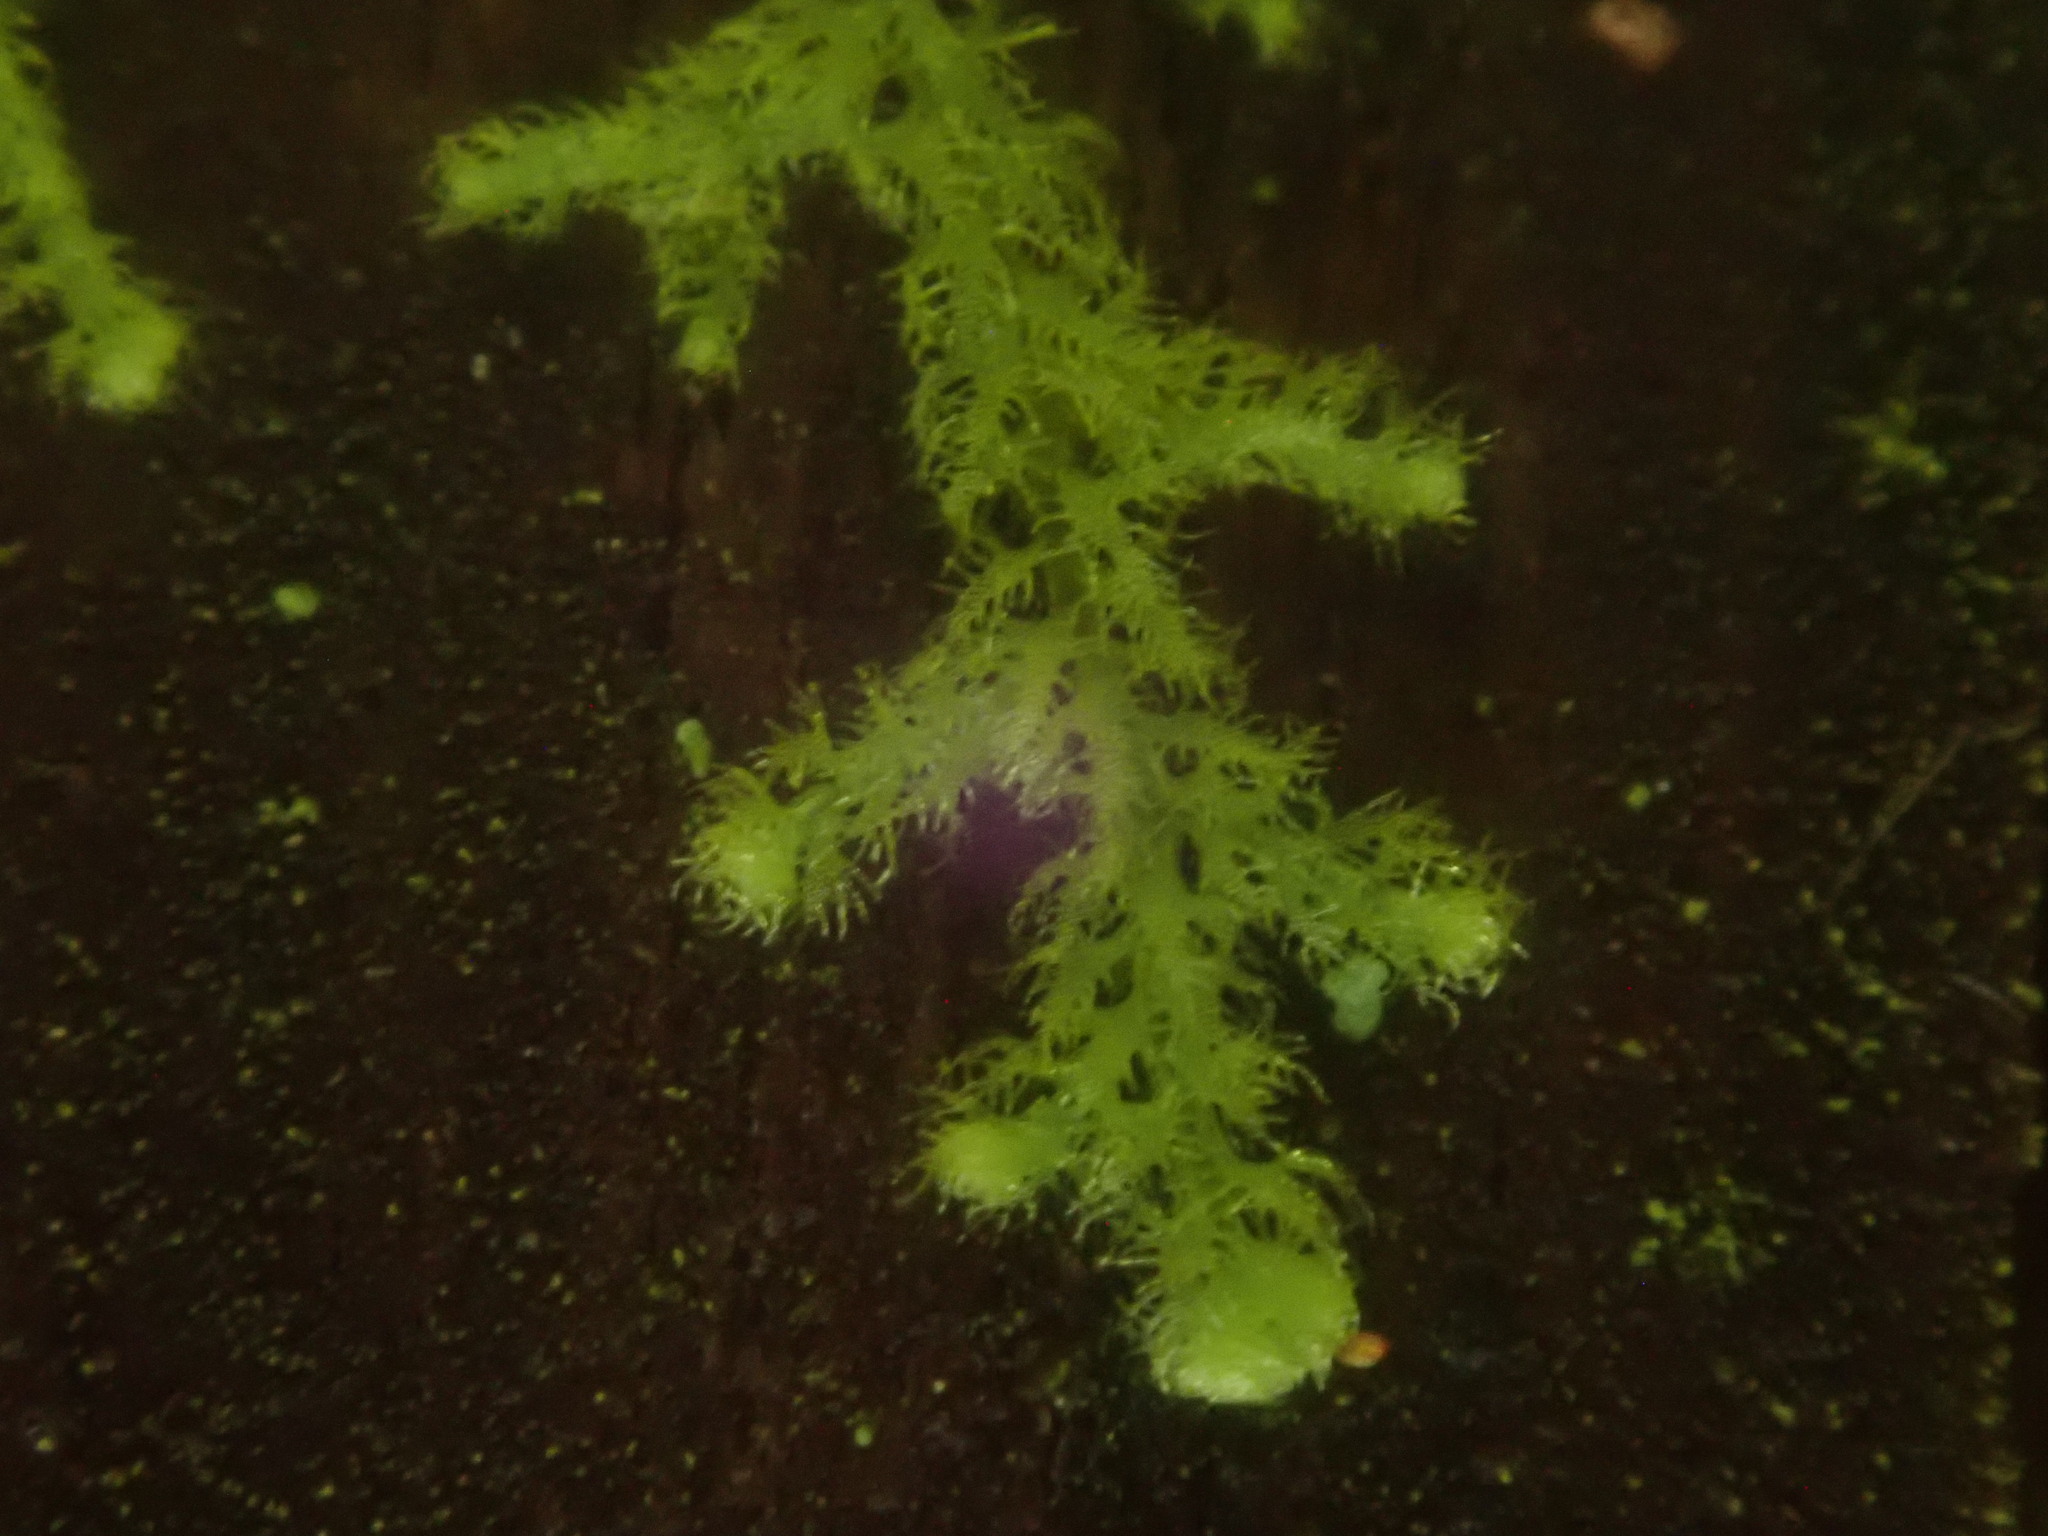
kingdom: Plantae
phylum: Marchantiophyta
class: Jungermanniopsida
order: Ptilidiales
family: Ptilidiaceae
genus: Ptilidium
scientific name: Ptilidium pulcherrimum
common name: Tree fringewort
